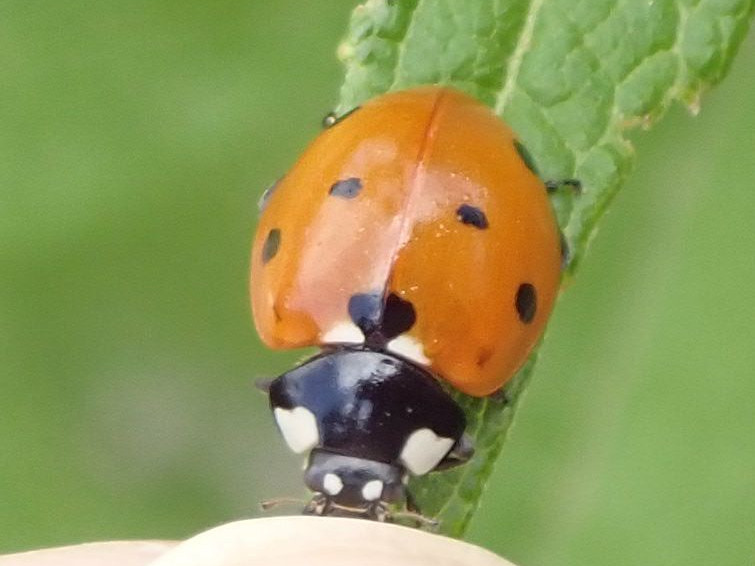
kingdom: Animalia
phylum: Arthropoda
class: Insecta
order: Coleoptera
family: Coccinellidae
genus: Coccinella
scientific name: Coccinella septempunctata
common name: Sevenspotted lady beetle
